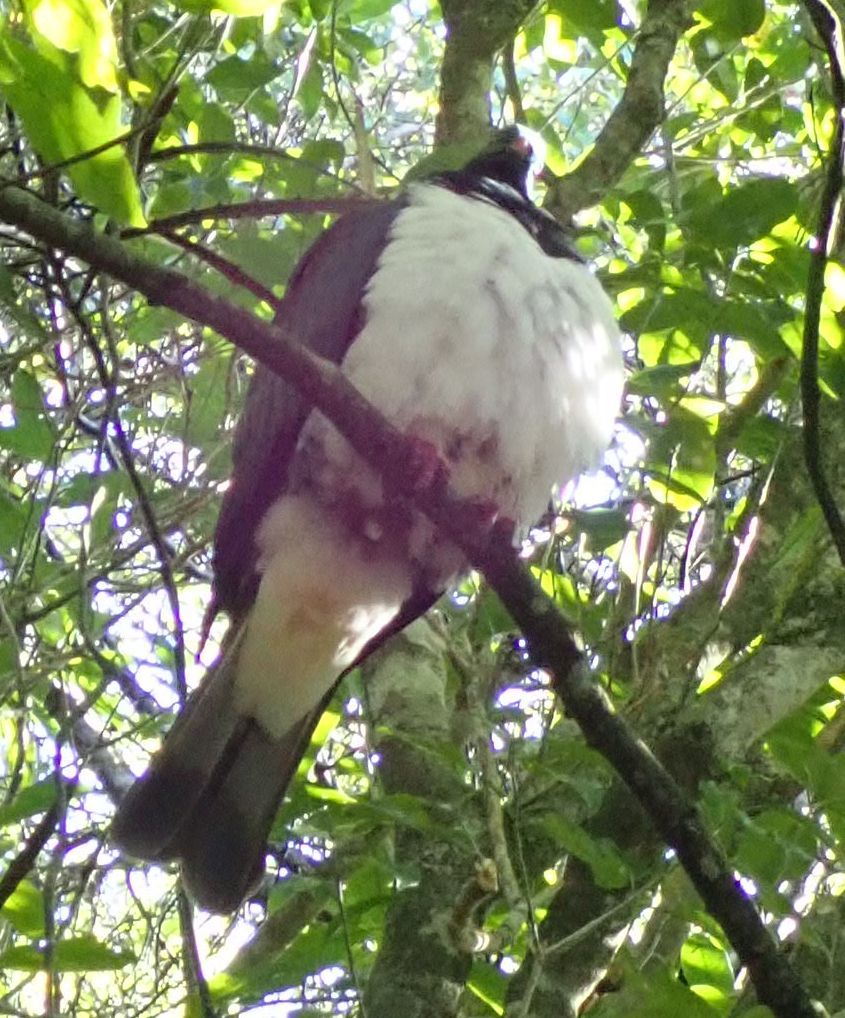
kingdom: Animalia
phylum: Chordata
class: Aves
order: Columbiformes
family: Columbidae
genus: Hemiphaga
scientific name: Hemiphaga novaeseelandiae
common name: New zealand pigeon
